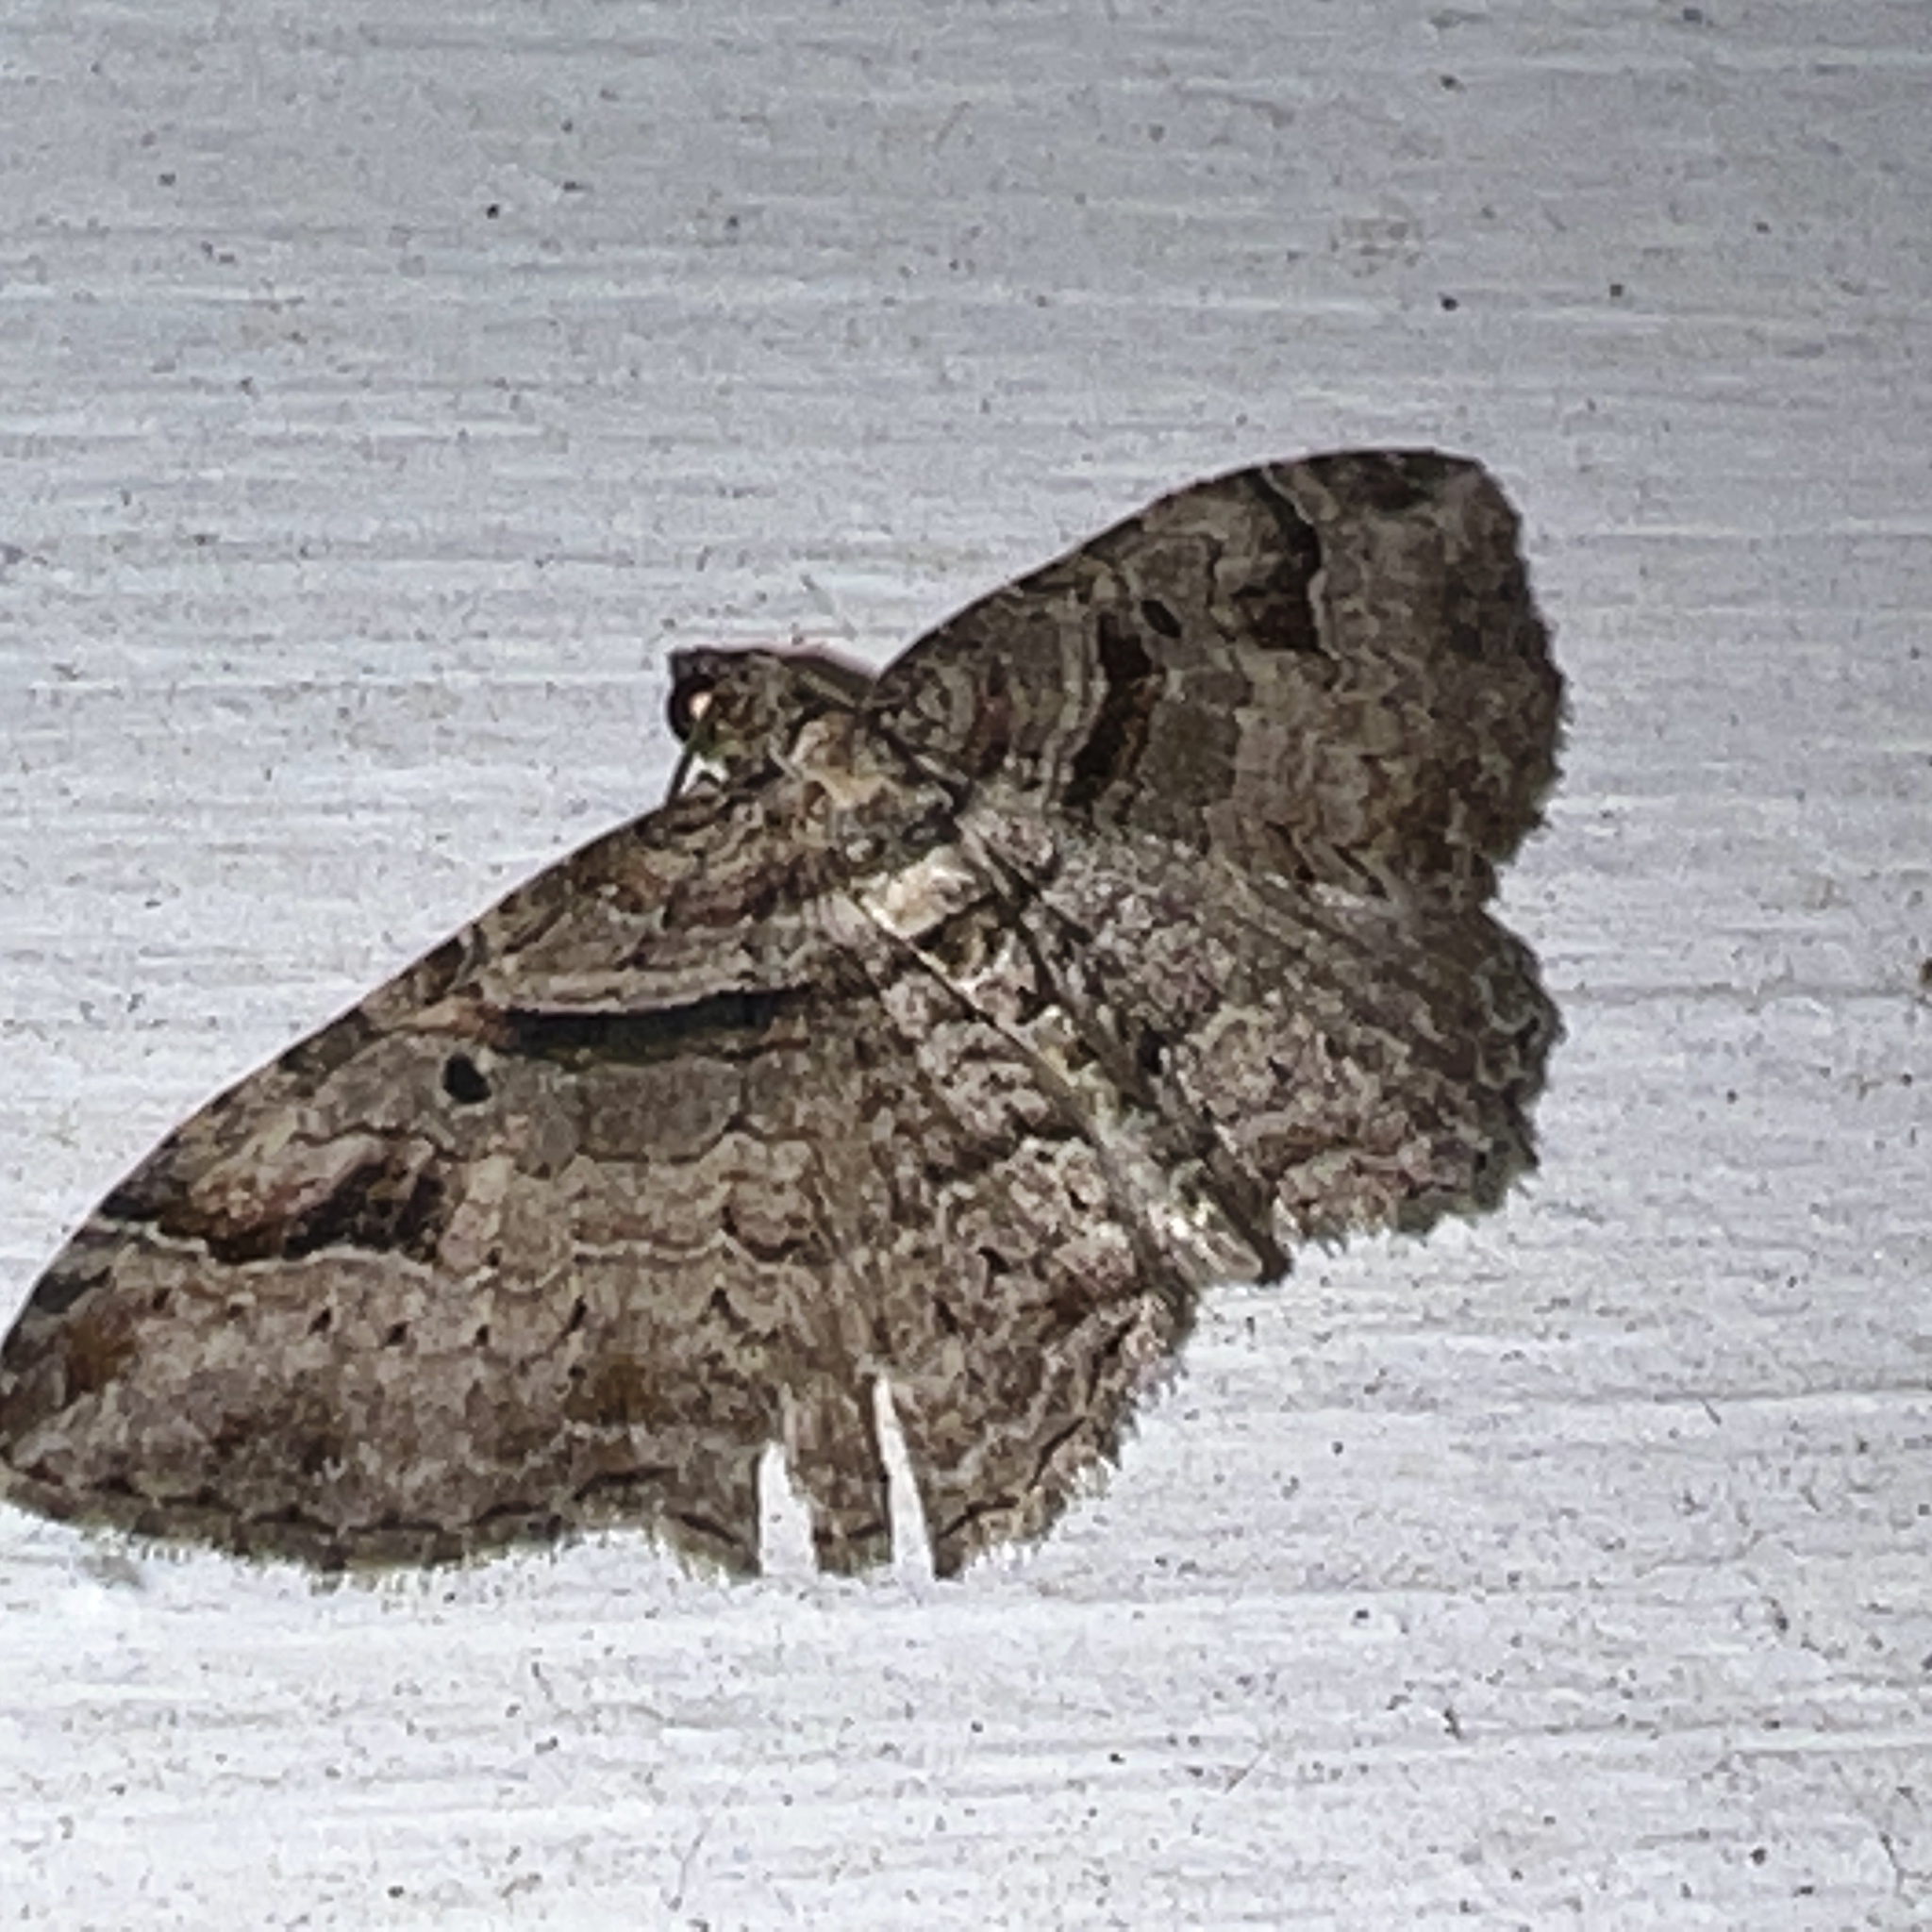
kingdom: Animalia
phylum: Arthropoda
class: Insecta
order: Lepidoptera
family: Geometridae
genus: Costaconvexa
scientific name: Costaconvexa centrostrigaria
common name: Bent-line carpet
